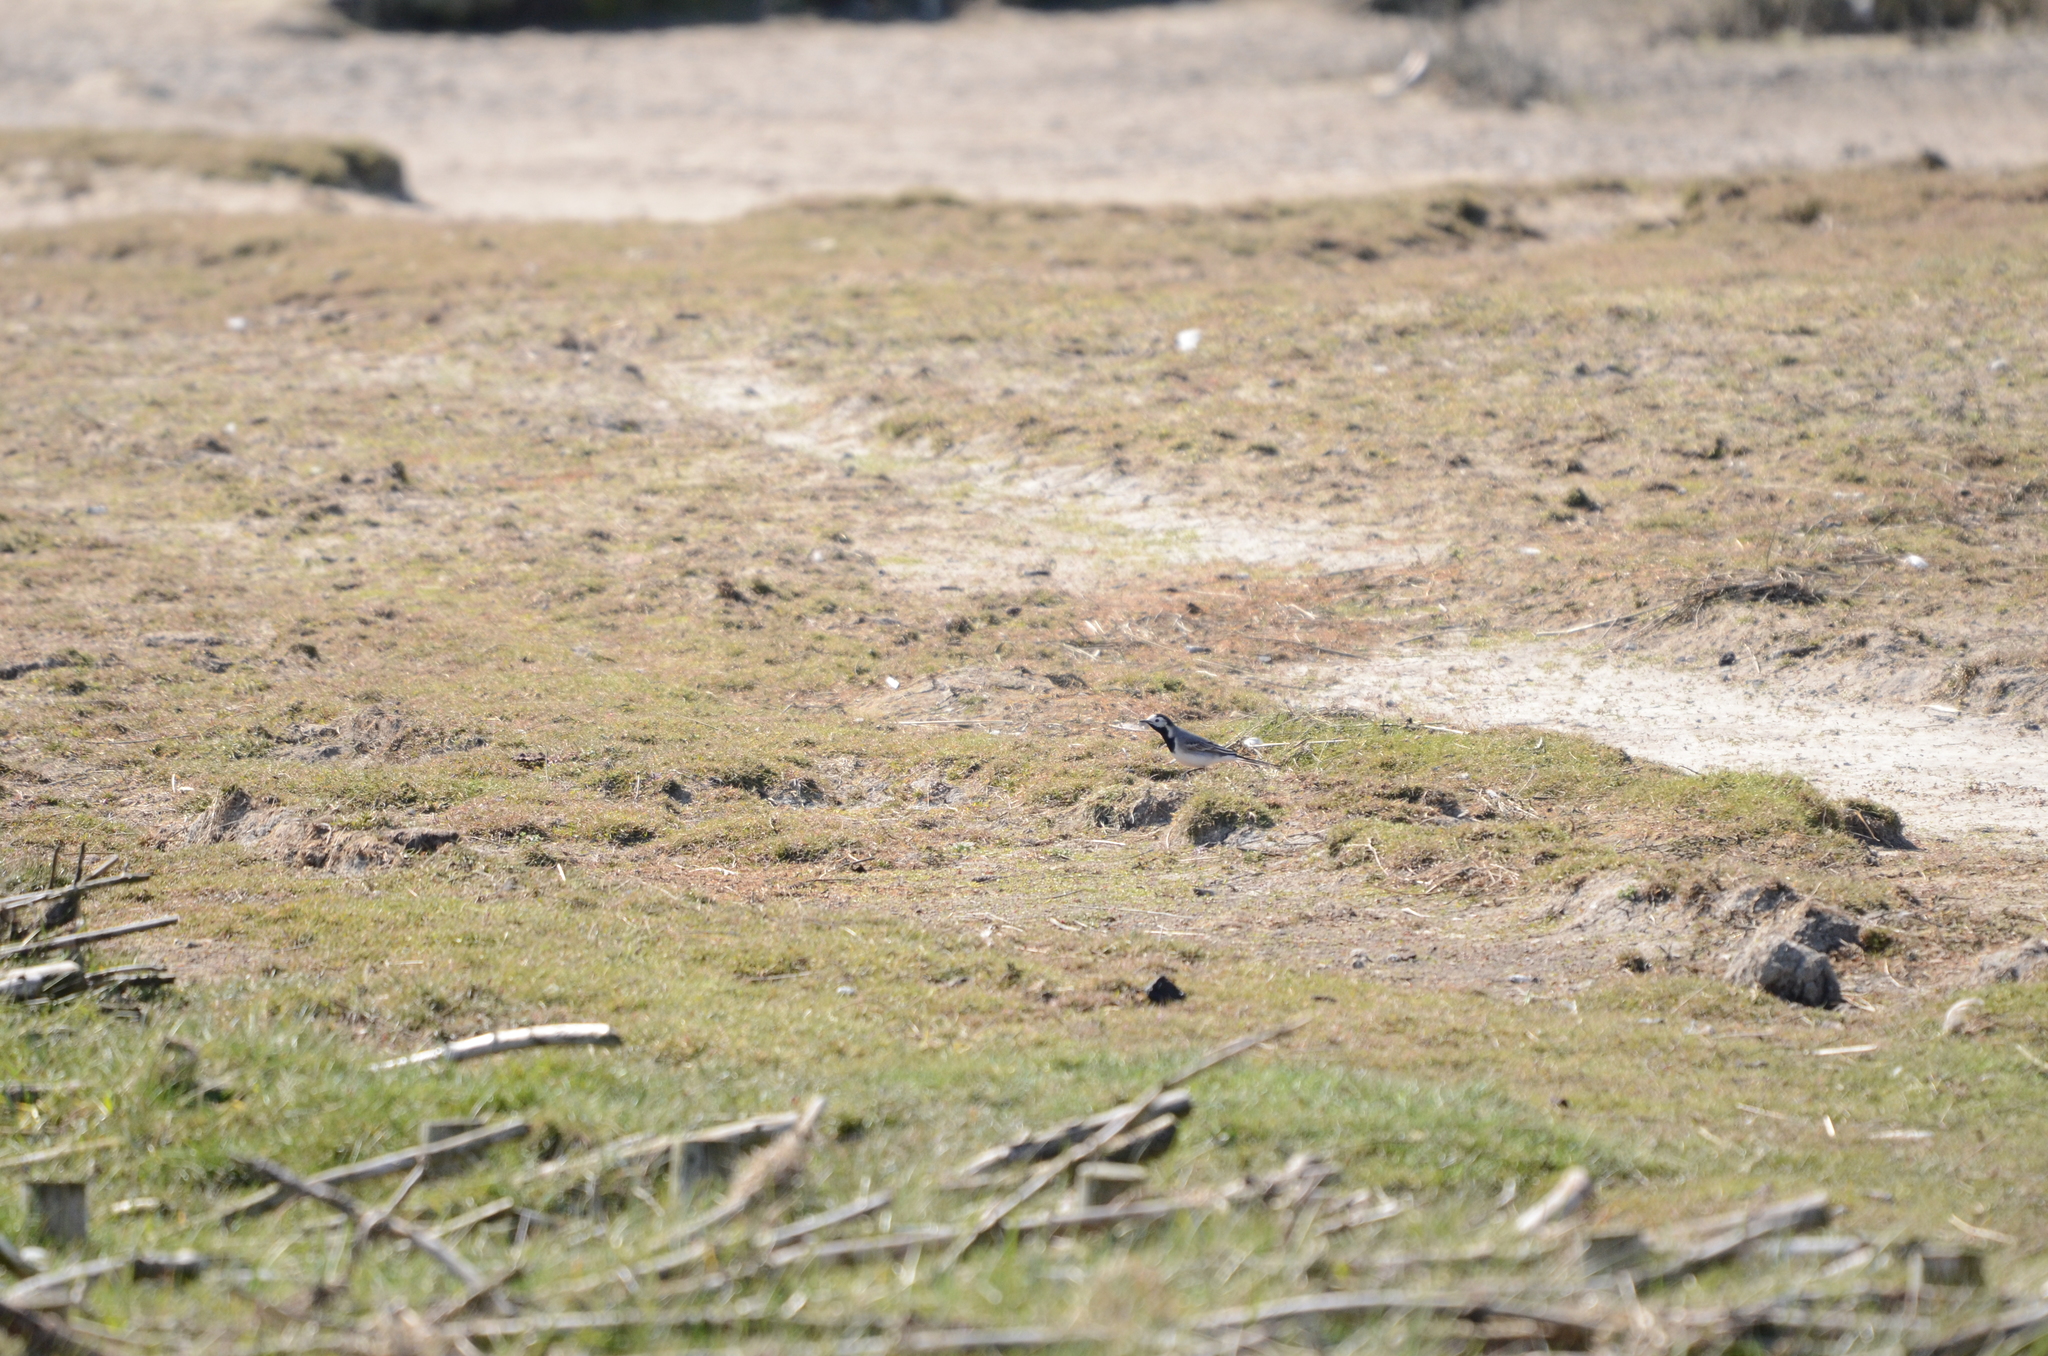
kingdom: Animalia
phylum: Chordata
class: Aves
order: Passeriformes
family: Motacillidae
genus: Motacilla
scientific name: Motacilla alba
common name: White wagtail
